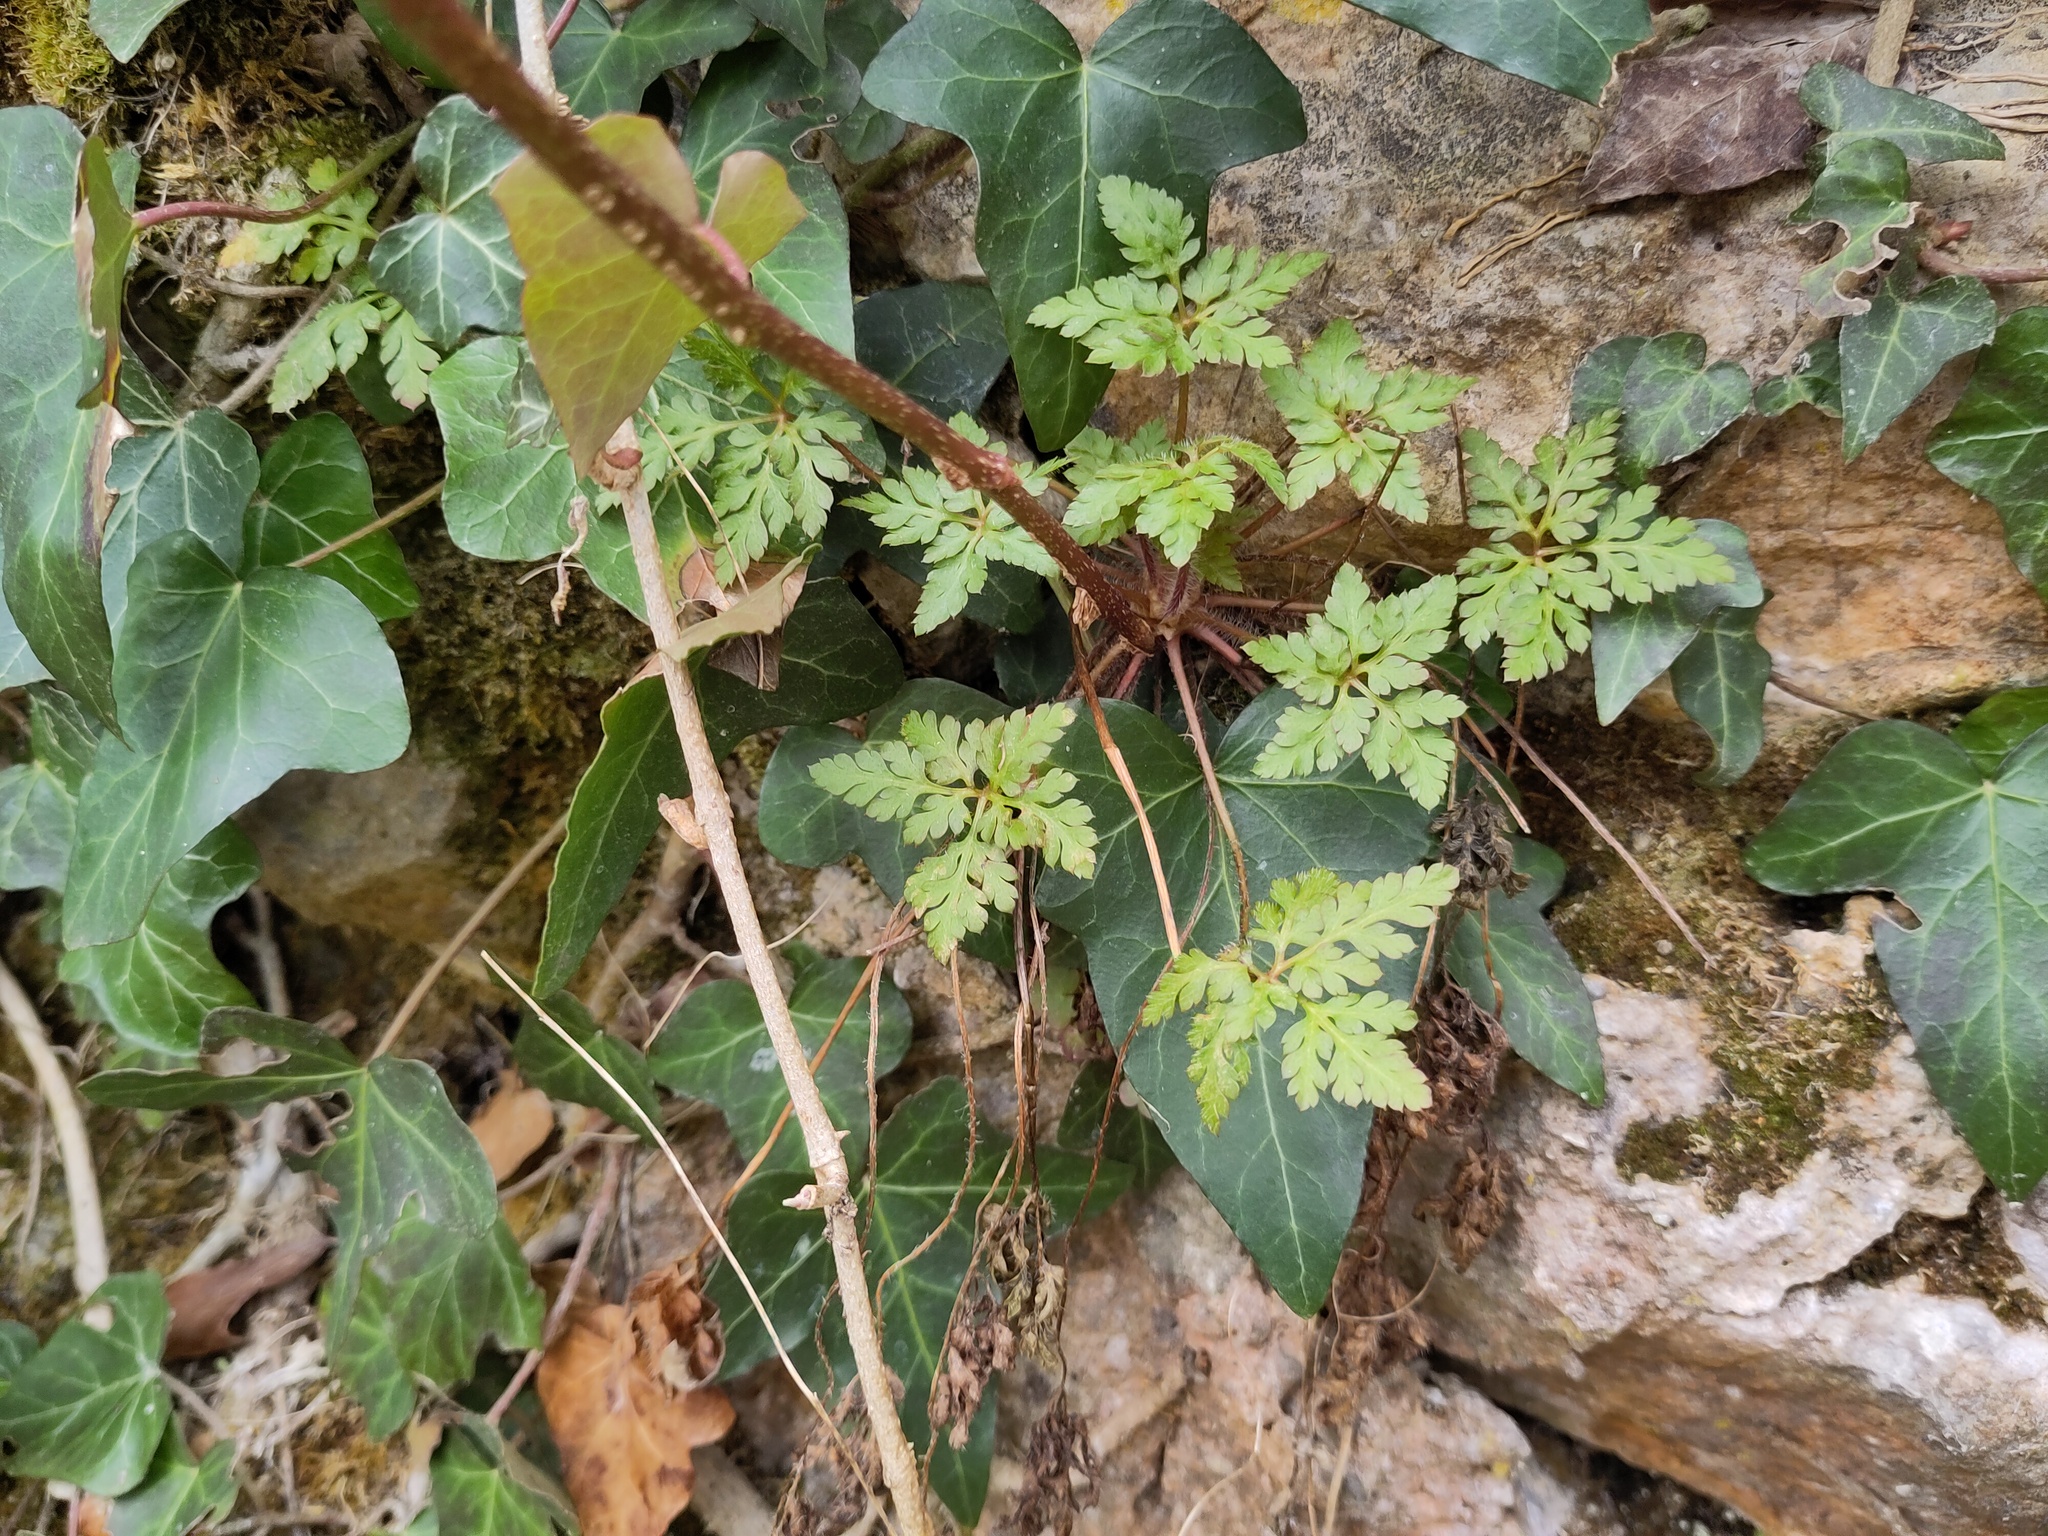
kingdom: Plantae
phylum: Tracheophyta
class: Magnoliopsida
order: Geraniales
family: Geraniaceae
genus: Geranium
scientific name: Geranium robertianum
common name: Herb-robert
